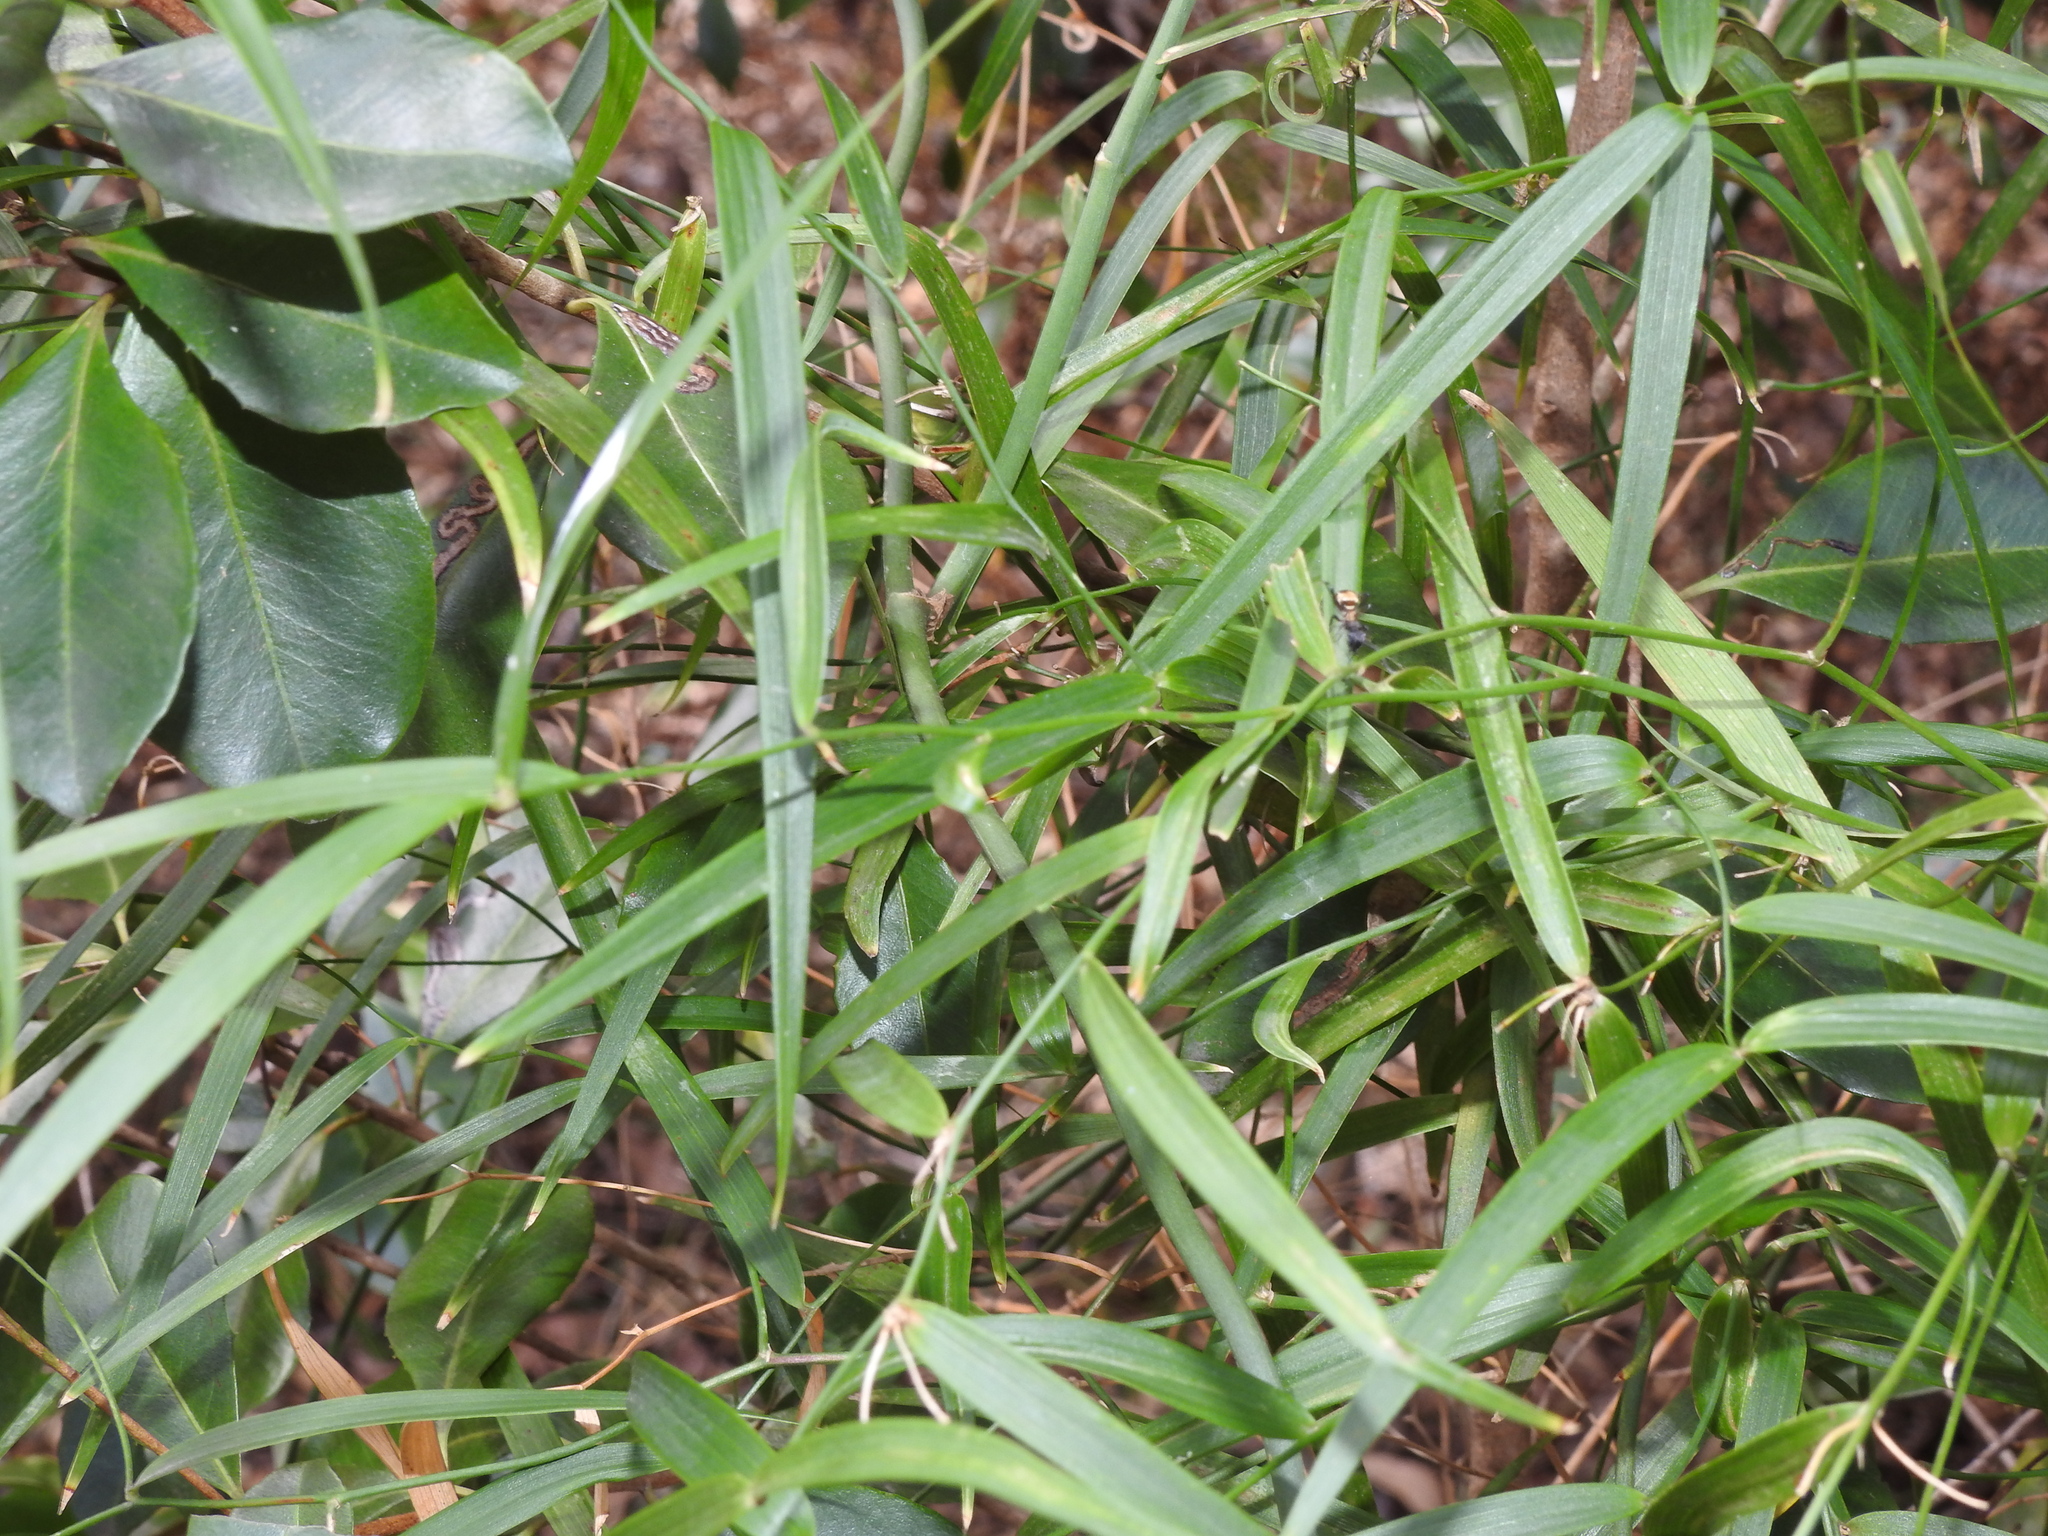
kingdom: Plantae
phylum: Tracheophyta
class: Liliopsida
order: Asparagales
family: Asparagaceae
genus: Eustrephus
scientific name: Eustrephus latifolius
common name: Orangevine
